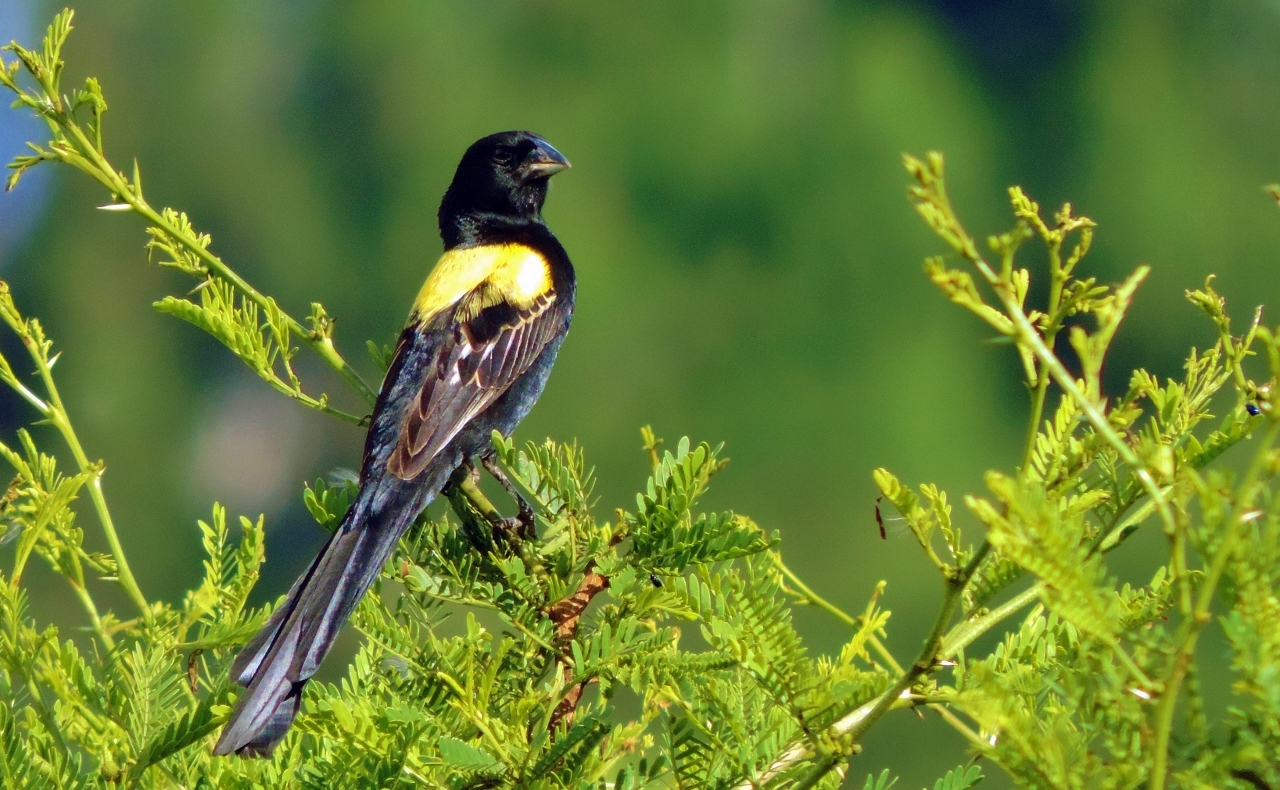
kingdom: Animalia
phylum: Chordata
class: Aves
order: Passeriformes
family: Ploceidae
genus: Euplectes
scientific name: Euplectes macroura
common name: Yellow-mantled widowbird
